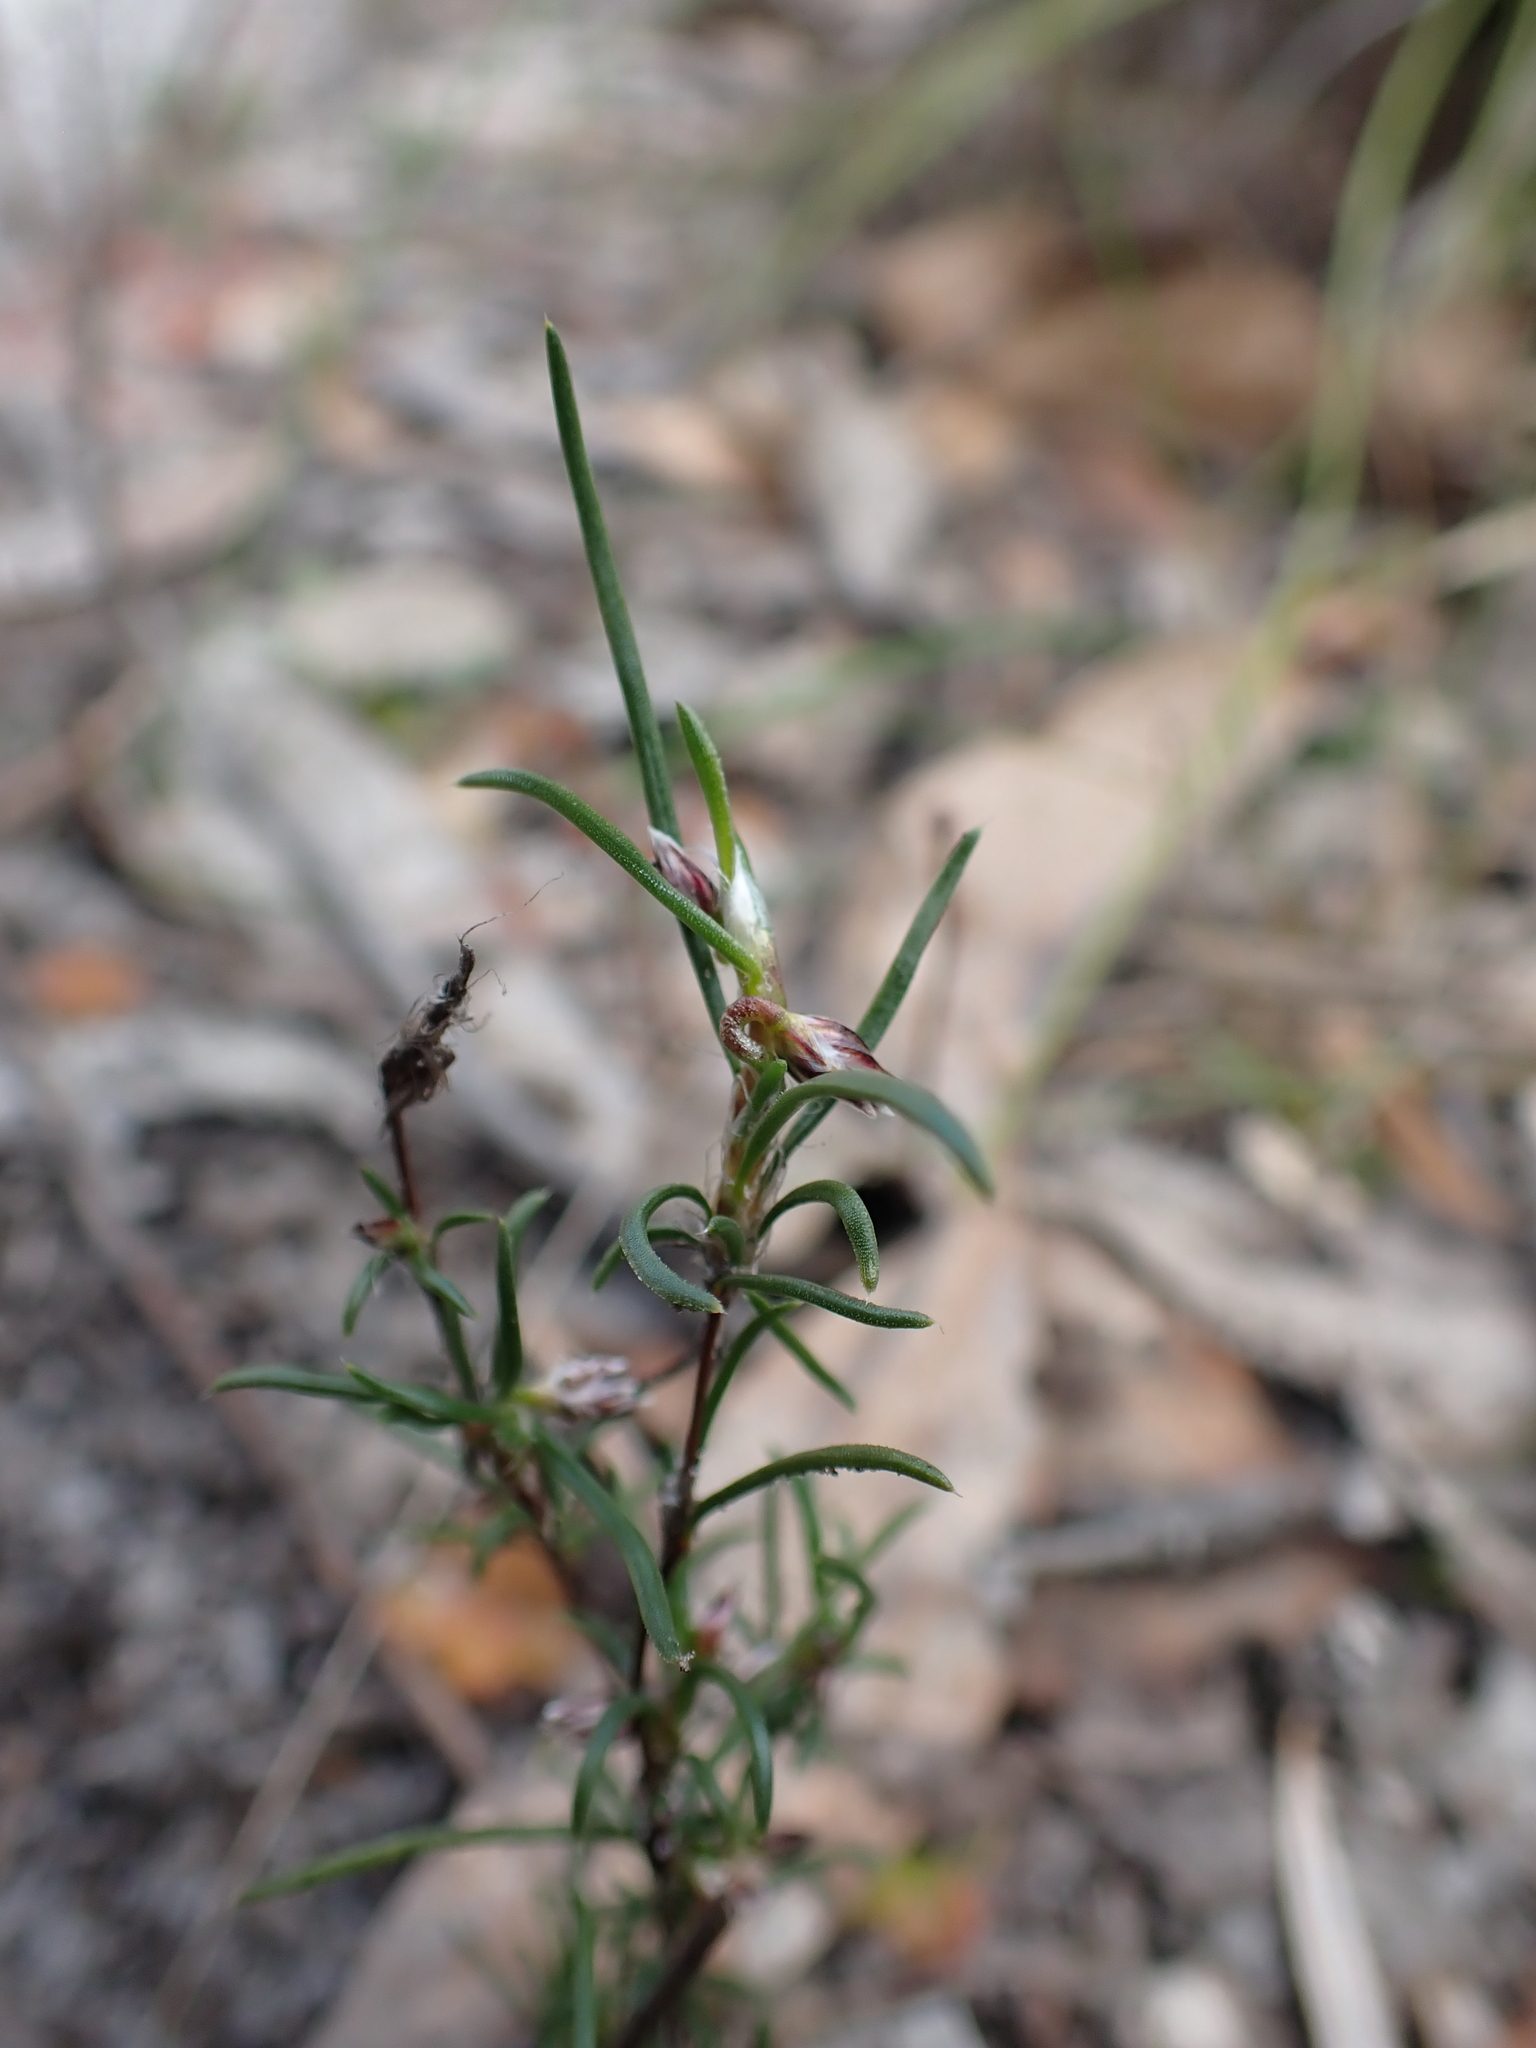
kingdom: Plantae
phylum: Tracheophyta
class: Liliopsida
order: Asparagales
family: Asparagaceae
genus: Laxmannia
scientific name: Laxmannia orientalis
